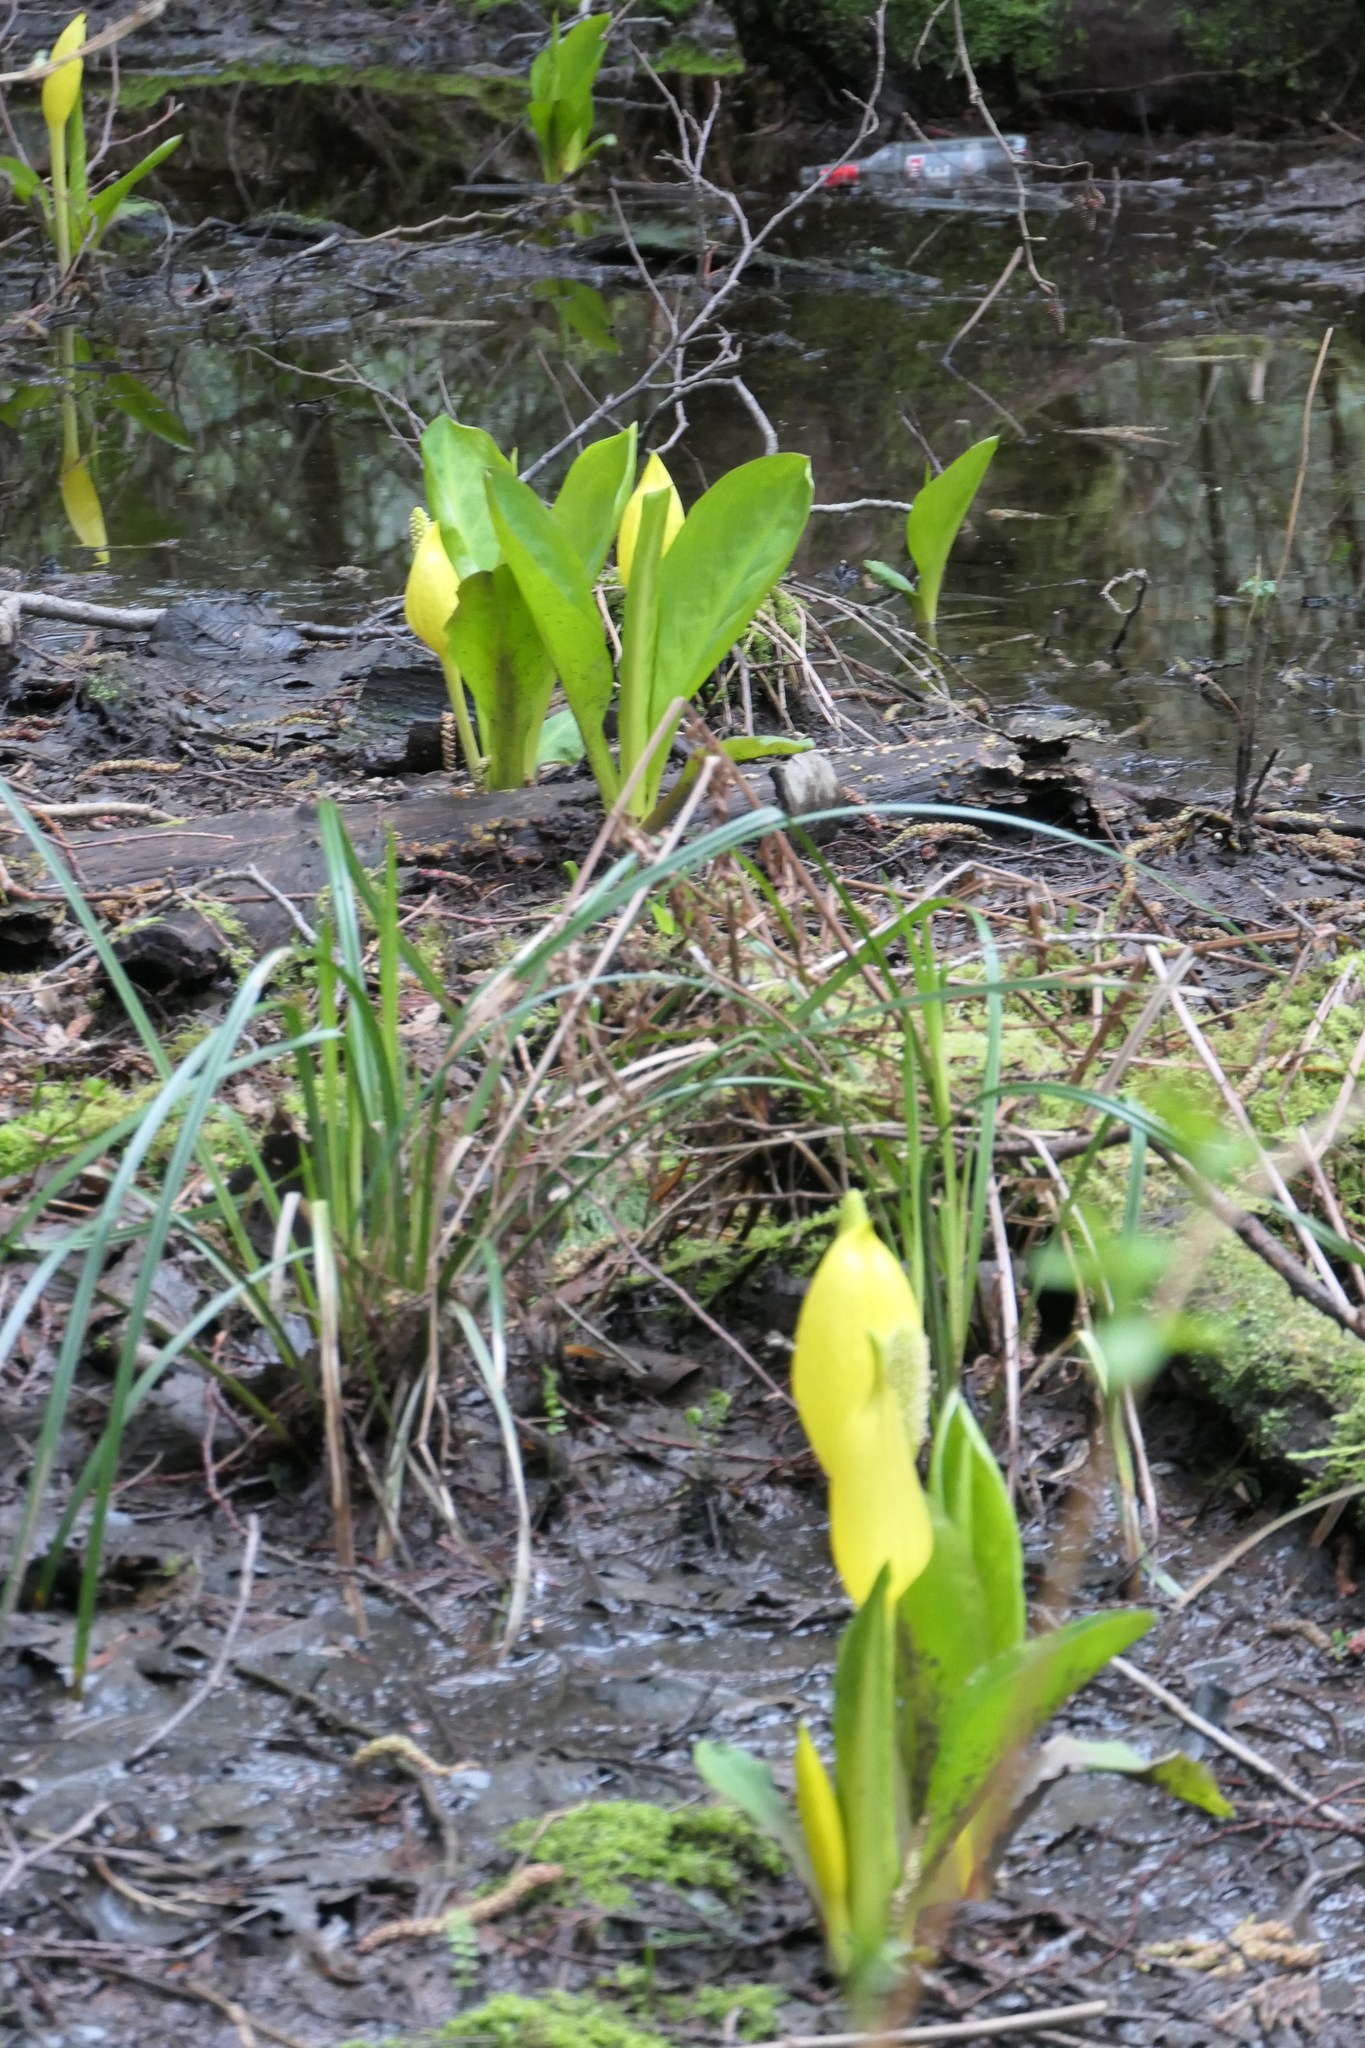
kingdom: Plantae
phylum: Tracheophyta
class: Liliopsida
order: Alismatales
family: Araceae
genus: Lysichiton
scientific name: Lysichiton americanus
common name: American skunk cabbage
